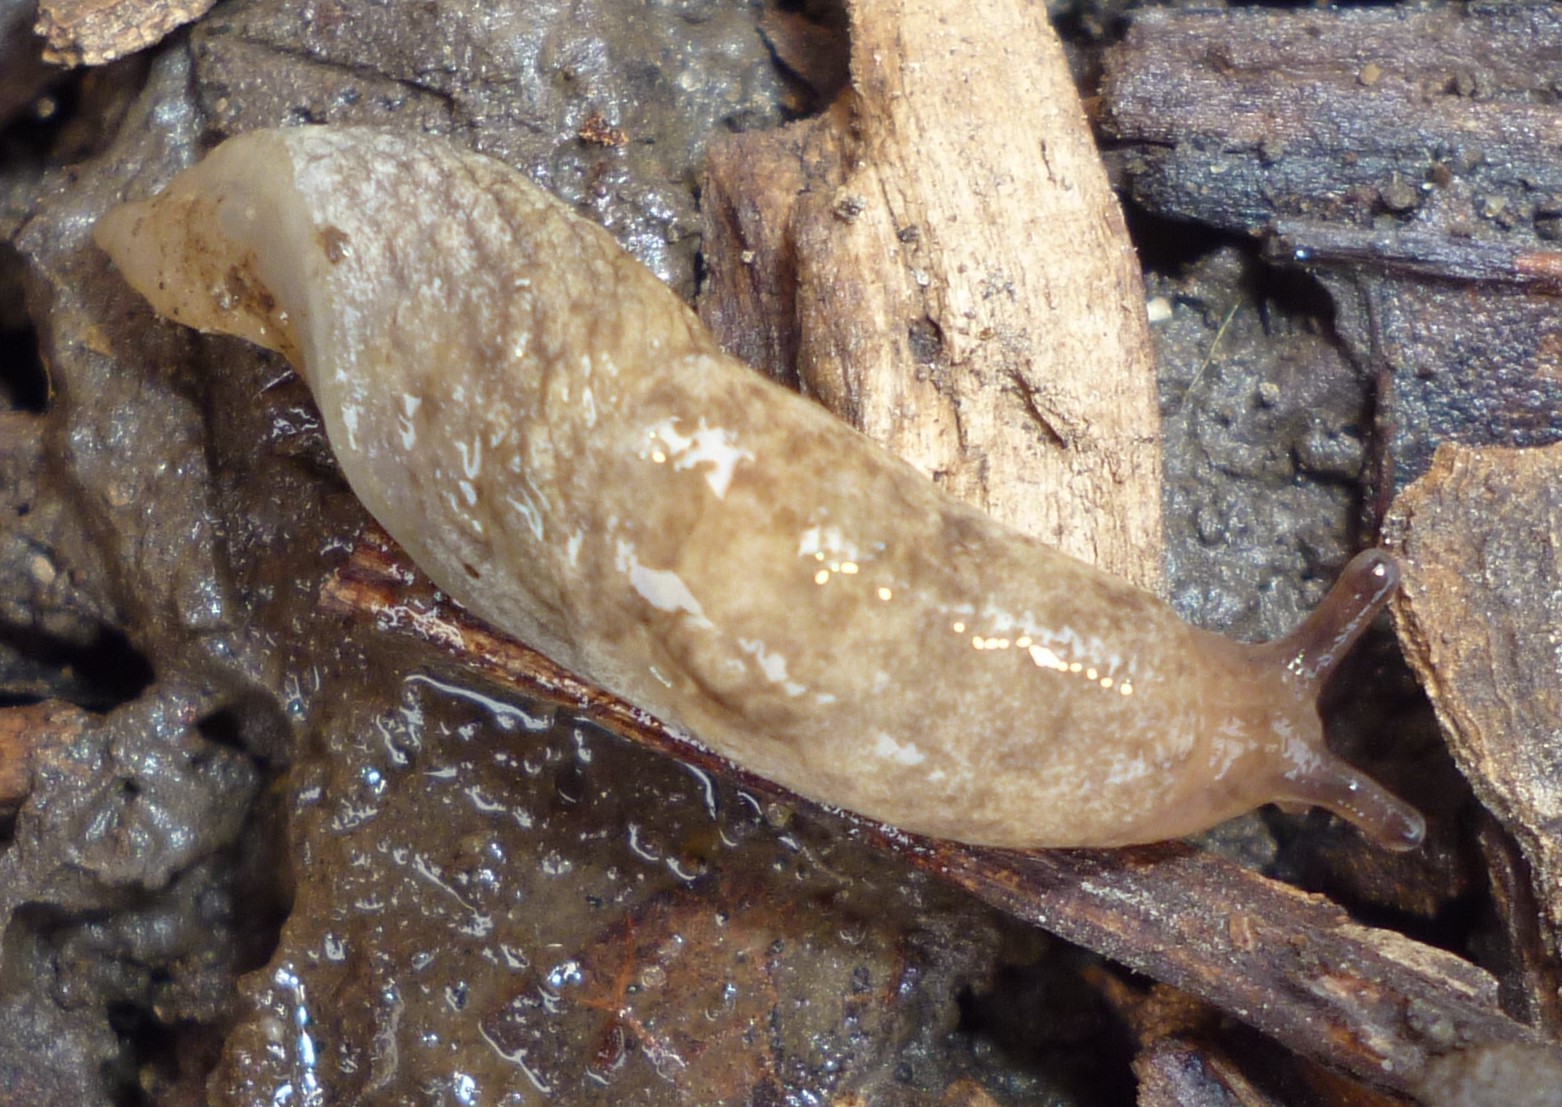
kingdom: Animalia
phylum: Mollusca
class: Gastropoda
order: Stylommatophora
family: Agriolimacidae
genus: Deroceras
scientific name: Deroceras reticulatum
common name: Gray field slug
